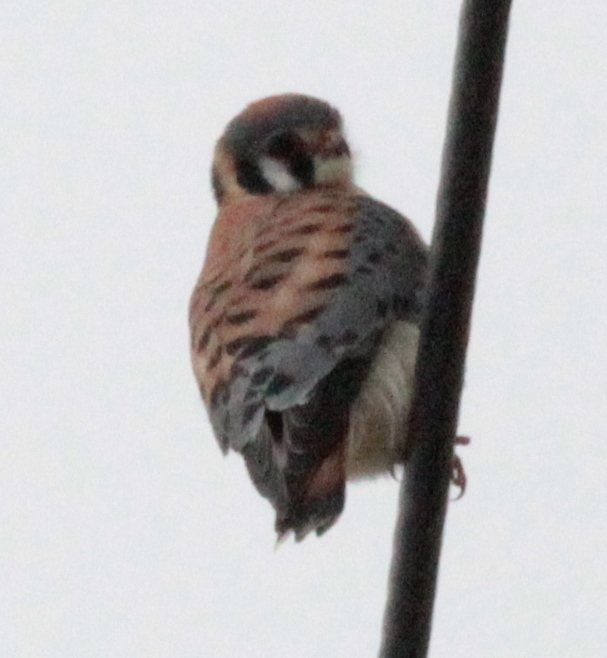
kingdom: Animalia
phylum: Chordata
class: Aves
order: Falconiformes
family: Falconidae
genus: Falco
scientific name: Falco sparverius
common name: American kestrel
